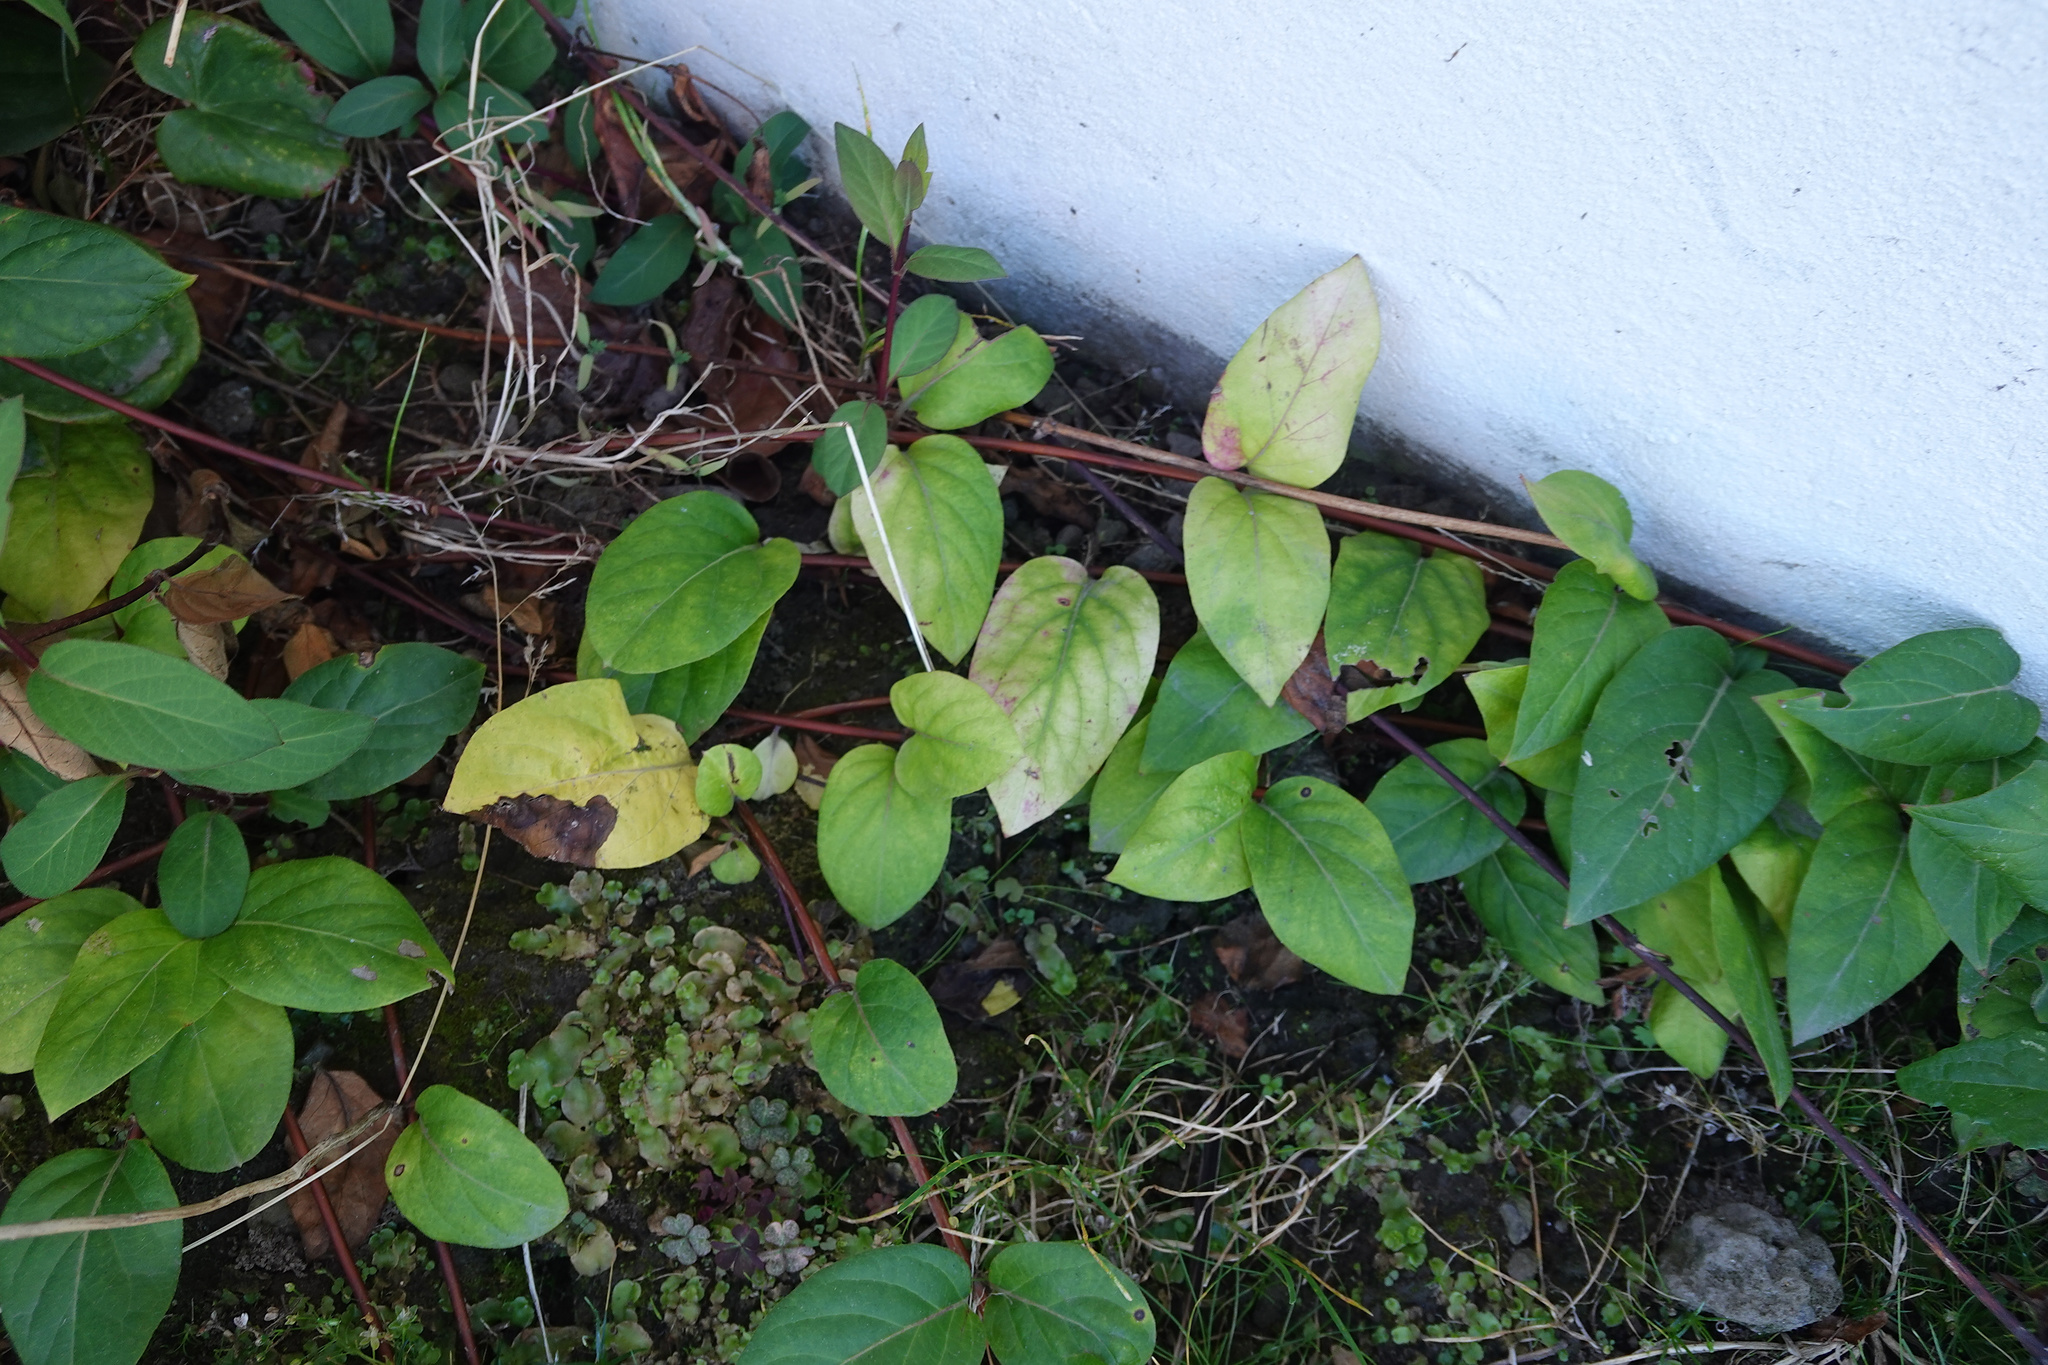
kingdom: Plantae
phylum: Tracheophyta
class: Magnoliopsida
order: Dipsacales
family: Caprifoliaceae
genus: Lonicera
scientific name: Lonicera japonica
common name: Japanese honeysuckle
